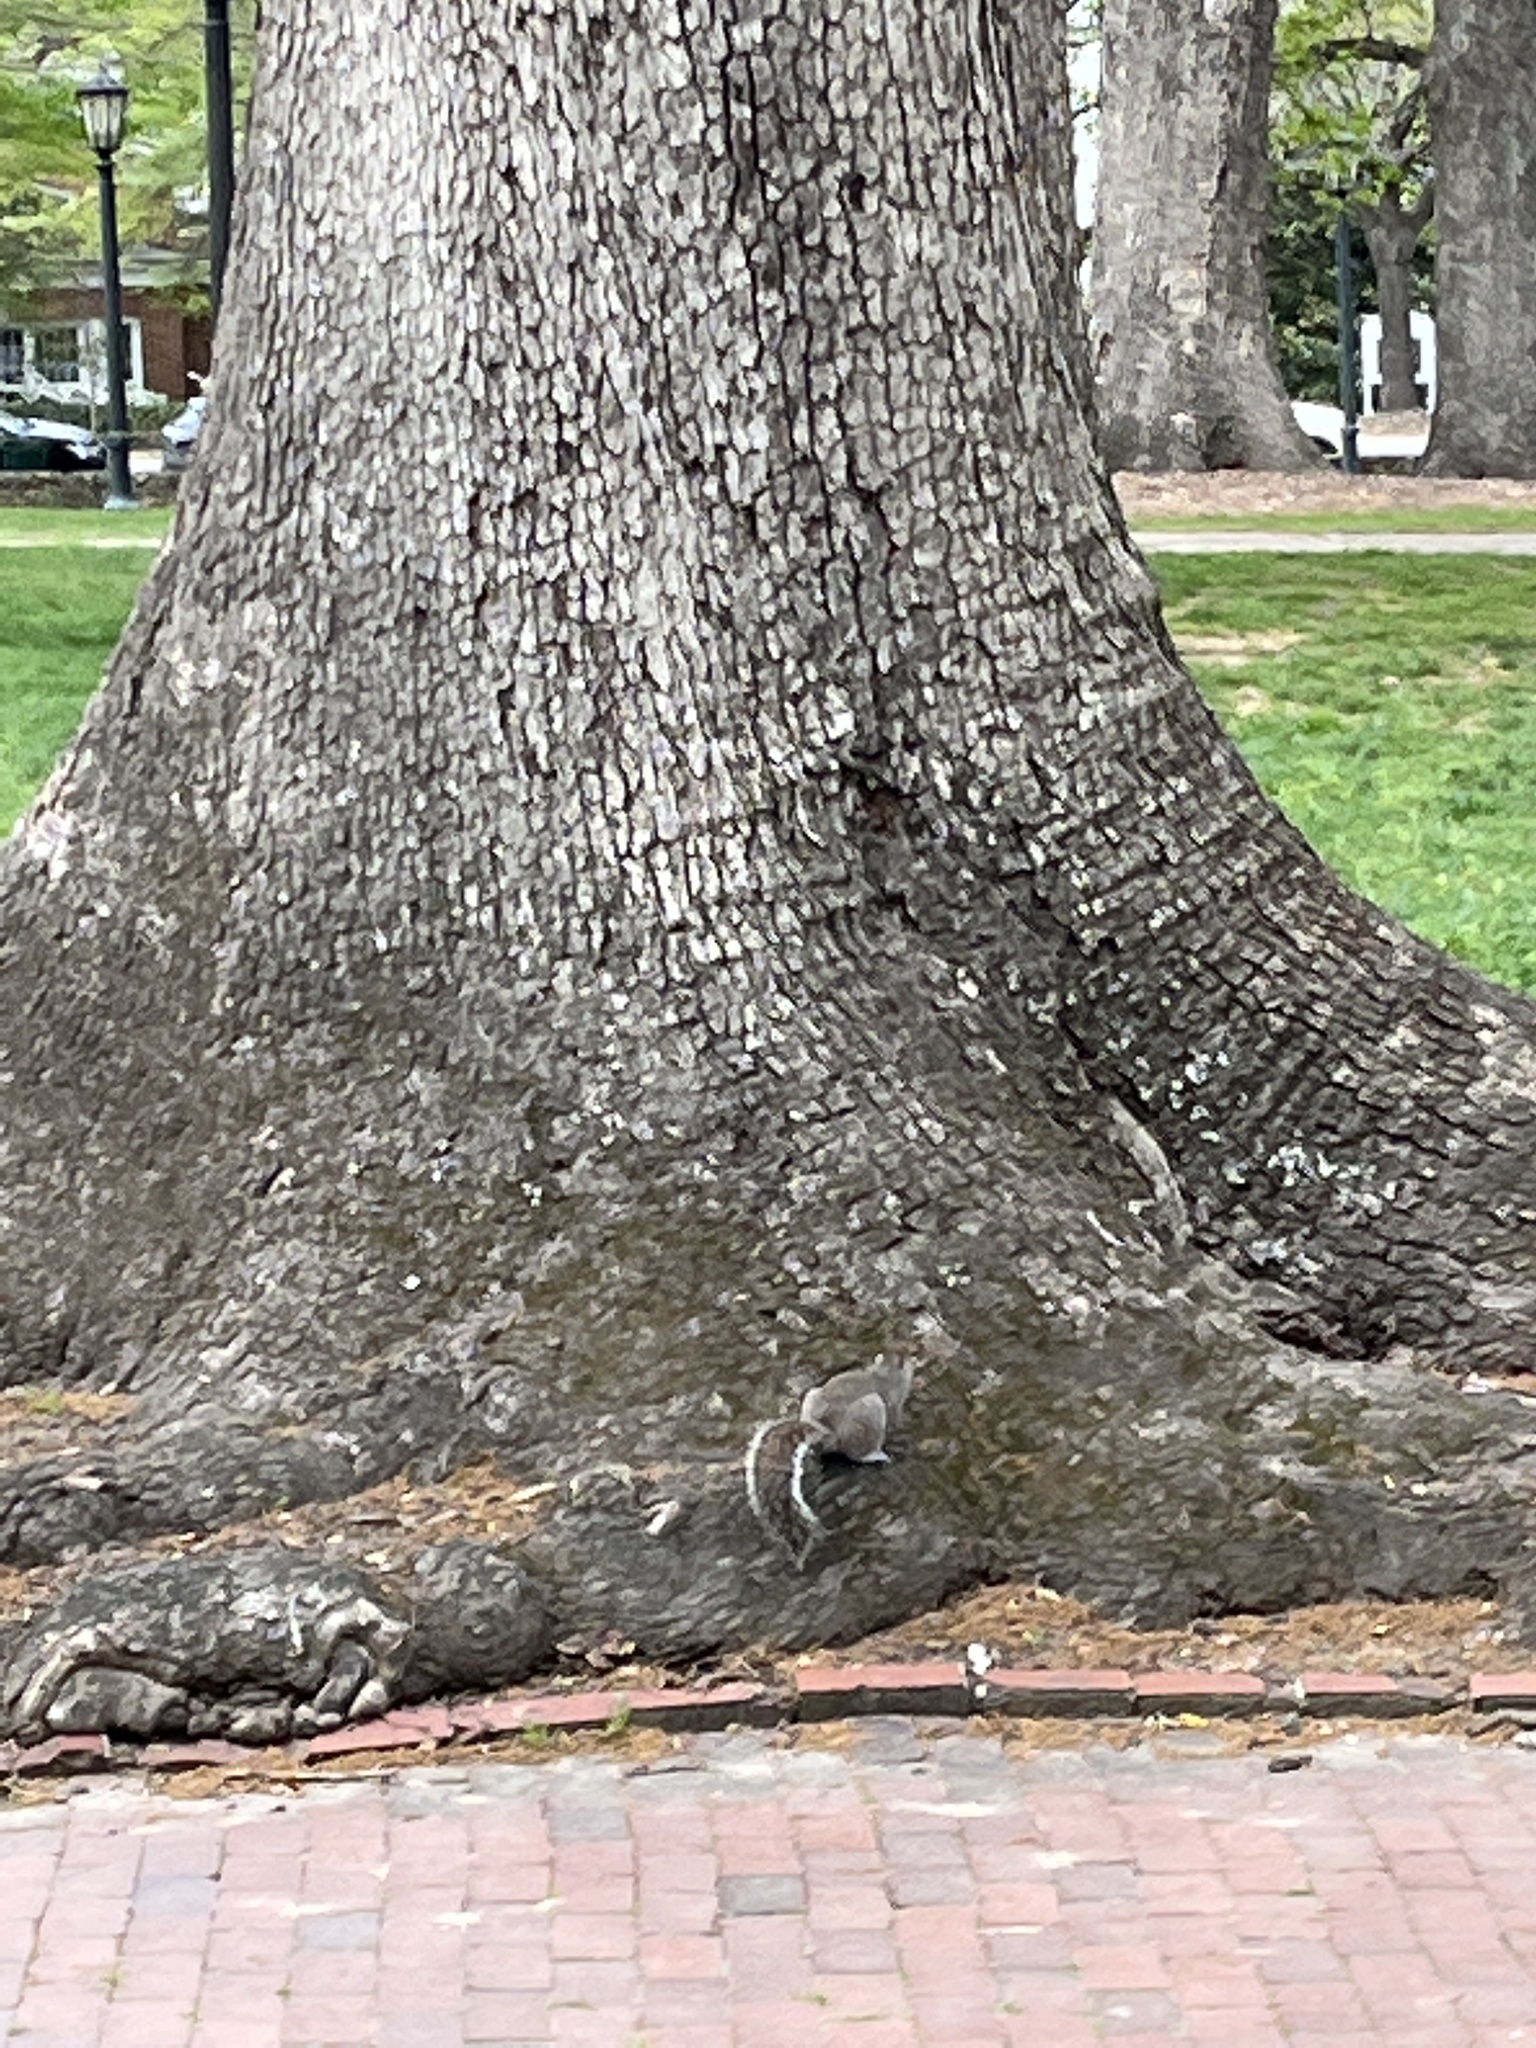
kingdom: Animalia
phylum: Chordata
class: Mammalia
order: Rodentia
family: Sciuridae
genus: Sciurus
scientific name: Sciurus carolinensis
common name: Eastern gray squirrel
